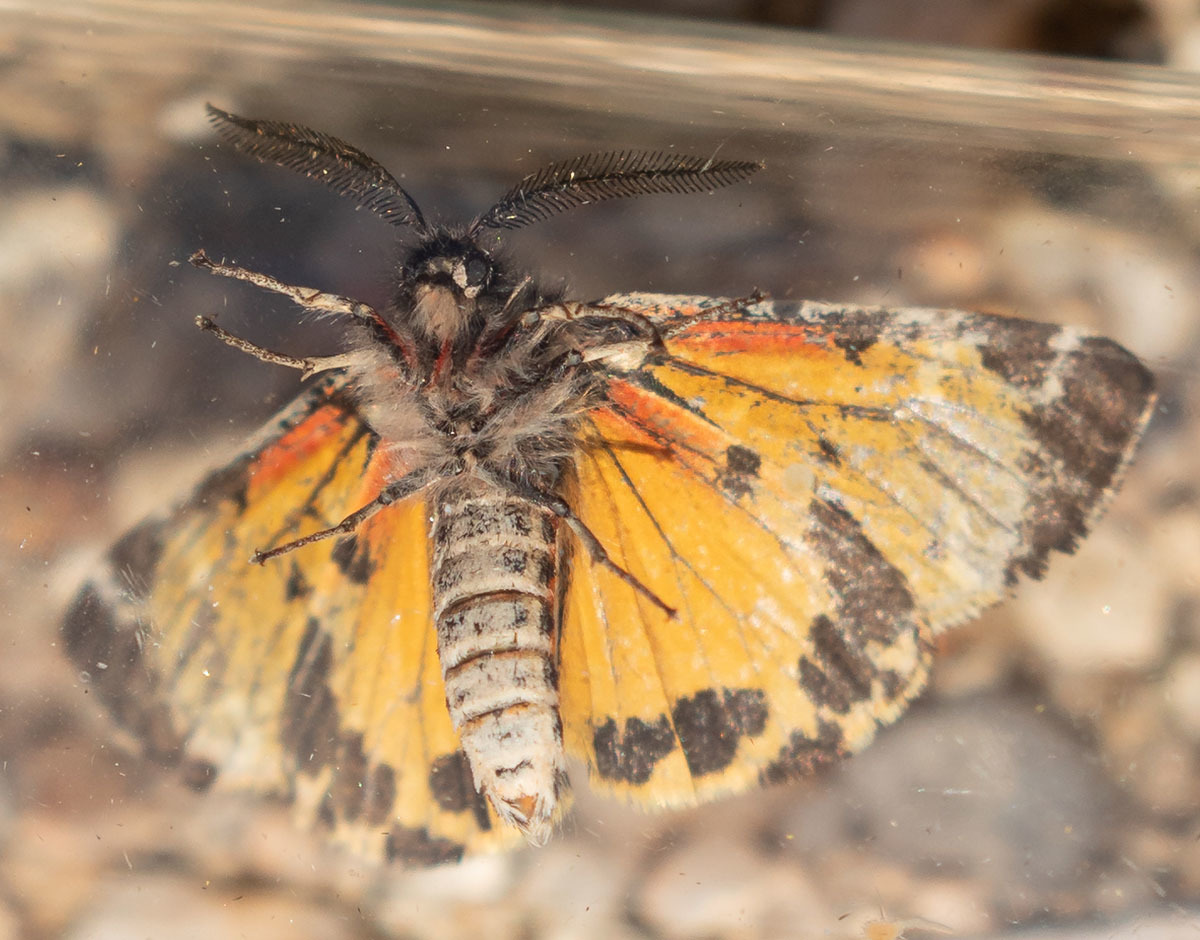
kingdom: Animalia
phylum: Arthropoda
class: Insecta
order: Lepidoptera
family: Erebidae
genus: Leptarctia
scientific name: Leptarctia californiae
